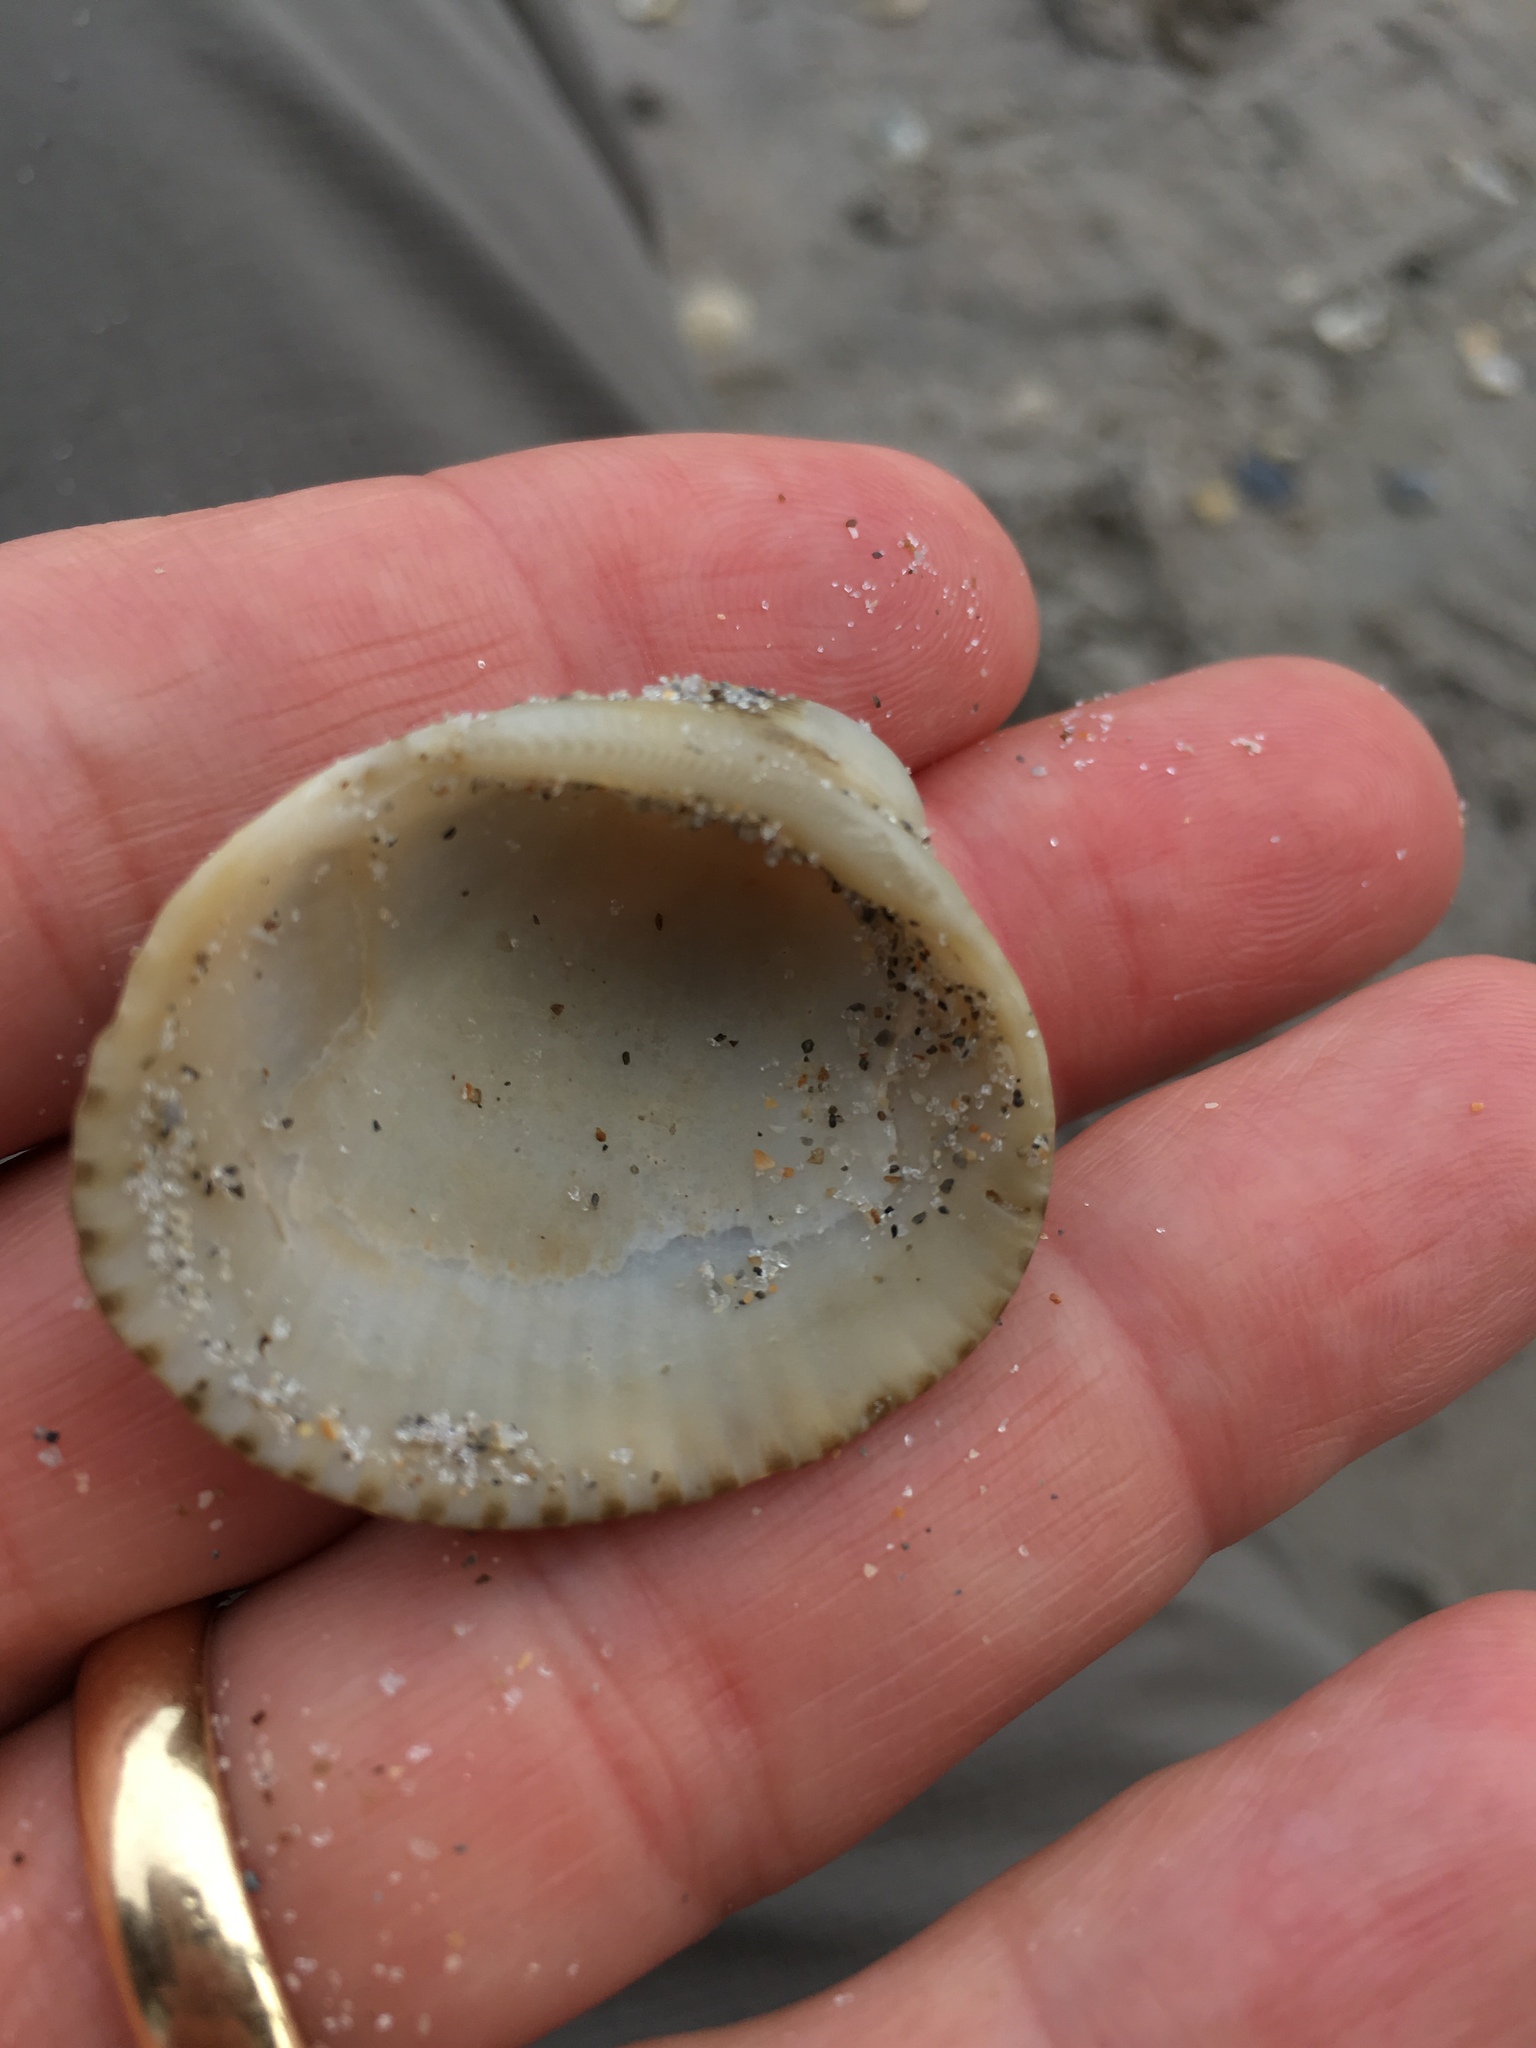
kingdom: Animalia
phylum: Mollusca
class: Bivalvia
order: Arcida
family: Arcidae
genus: Lunarca
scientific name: Lunarca ovalis
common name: Blood ark
